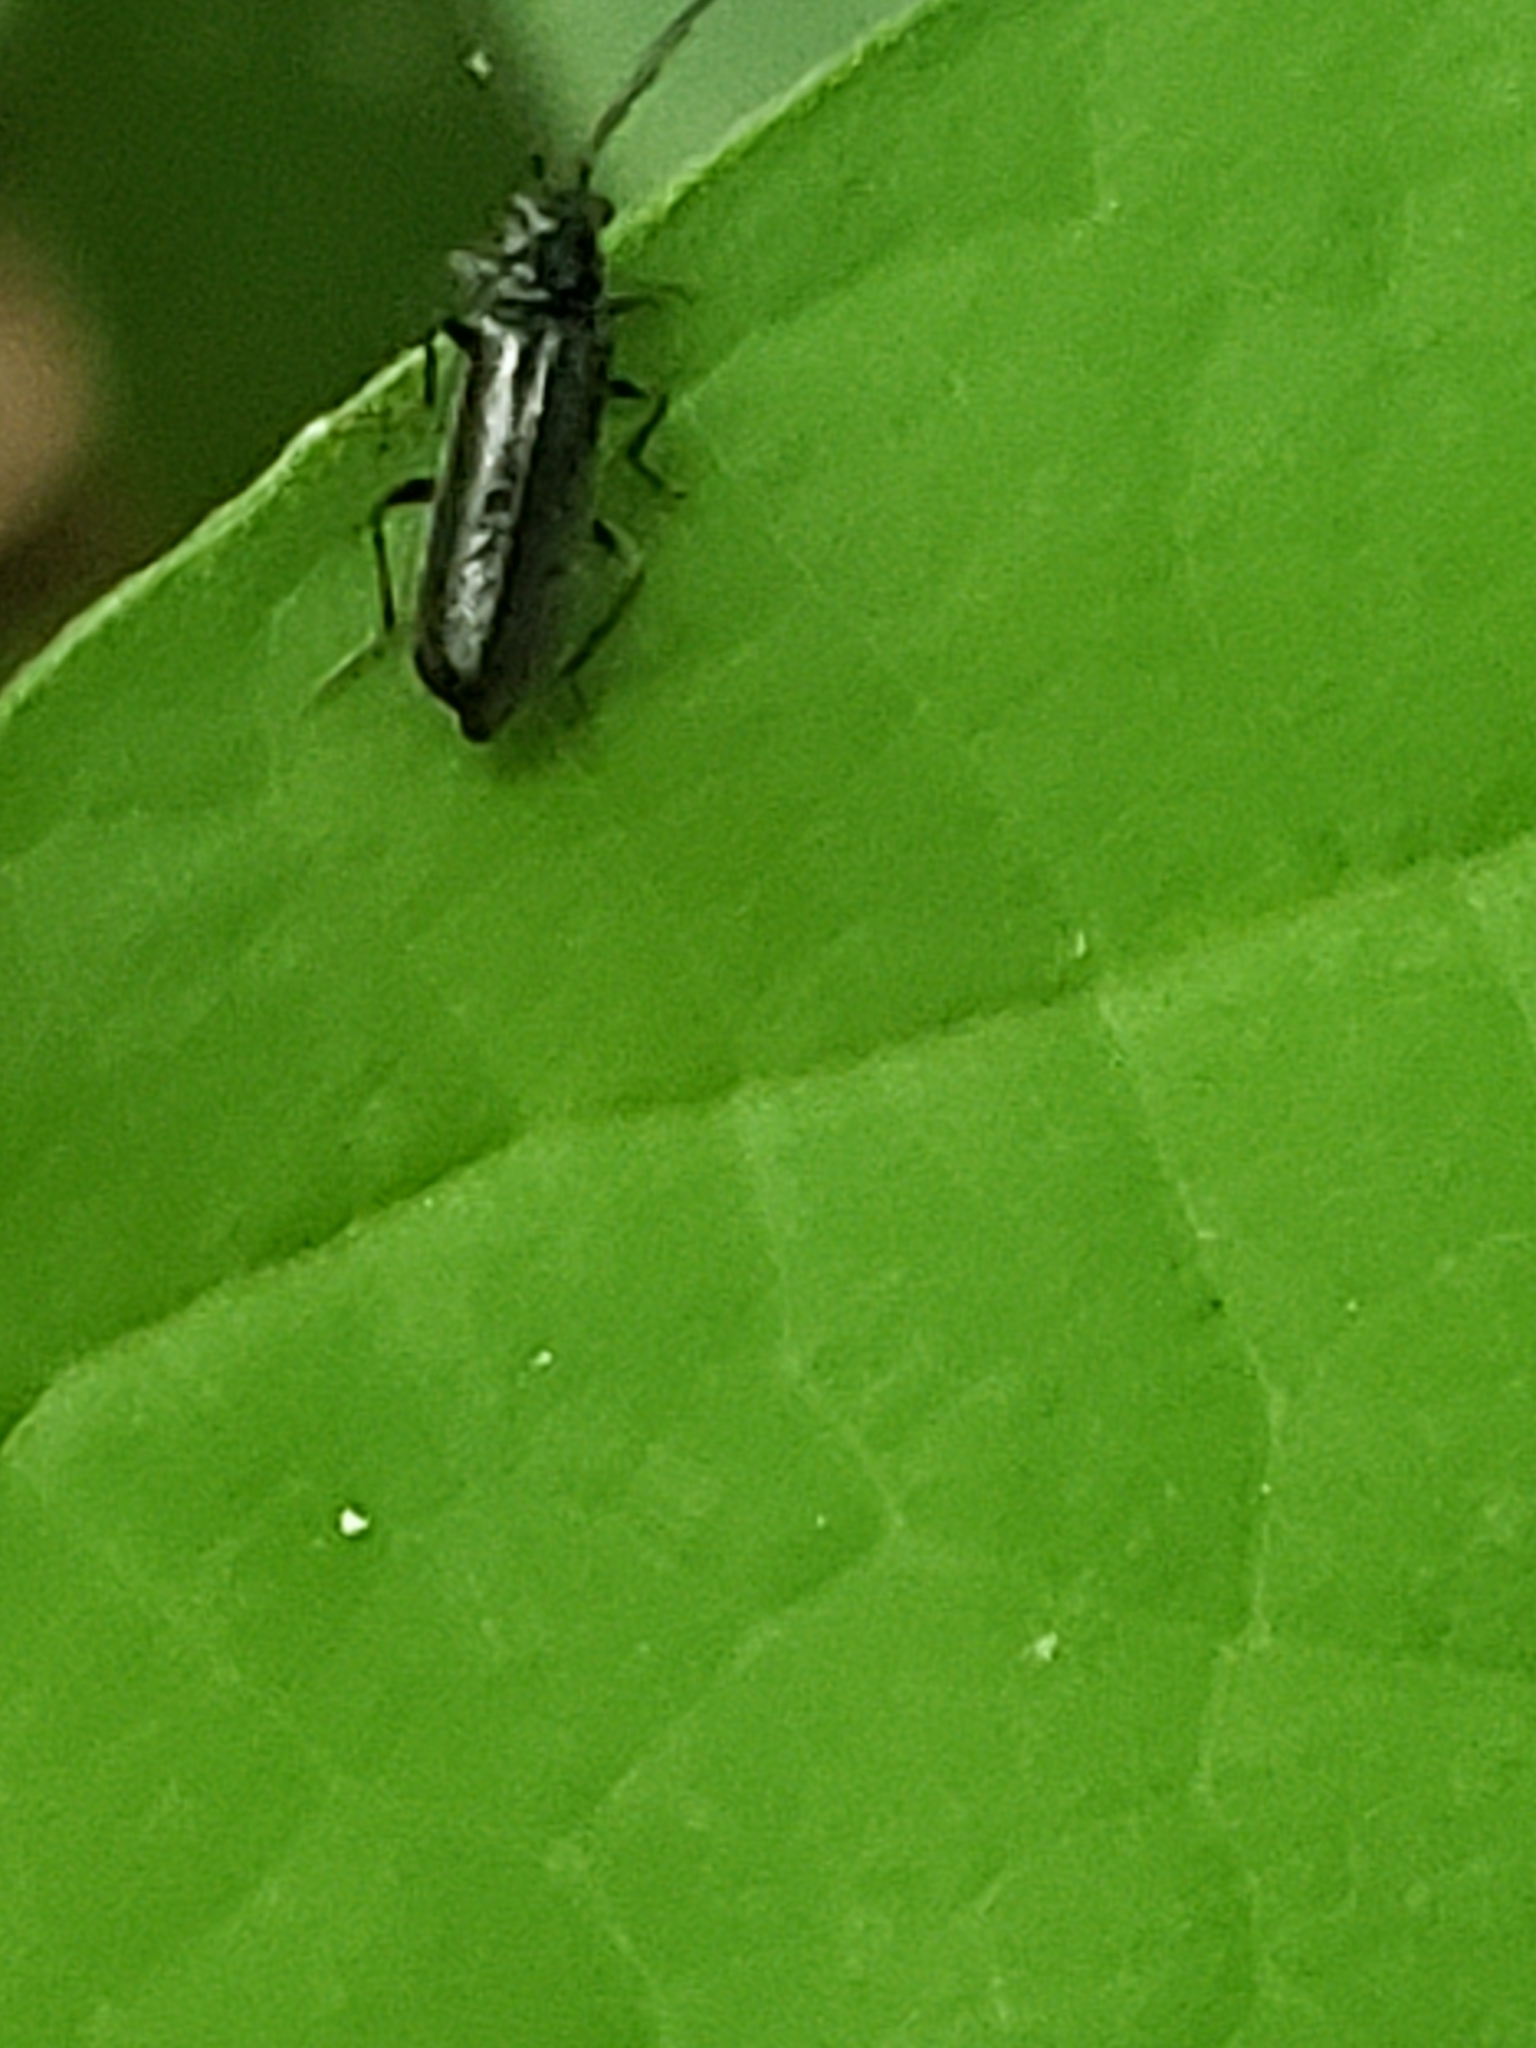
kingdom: Animalia
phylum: Arthropoda
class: Insecta
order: Coleoptera
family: Cantharidae
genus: Cantharis
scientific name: Cantharis tuberculata
